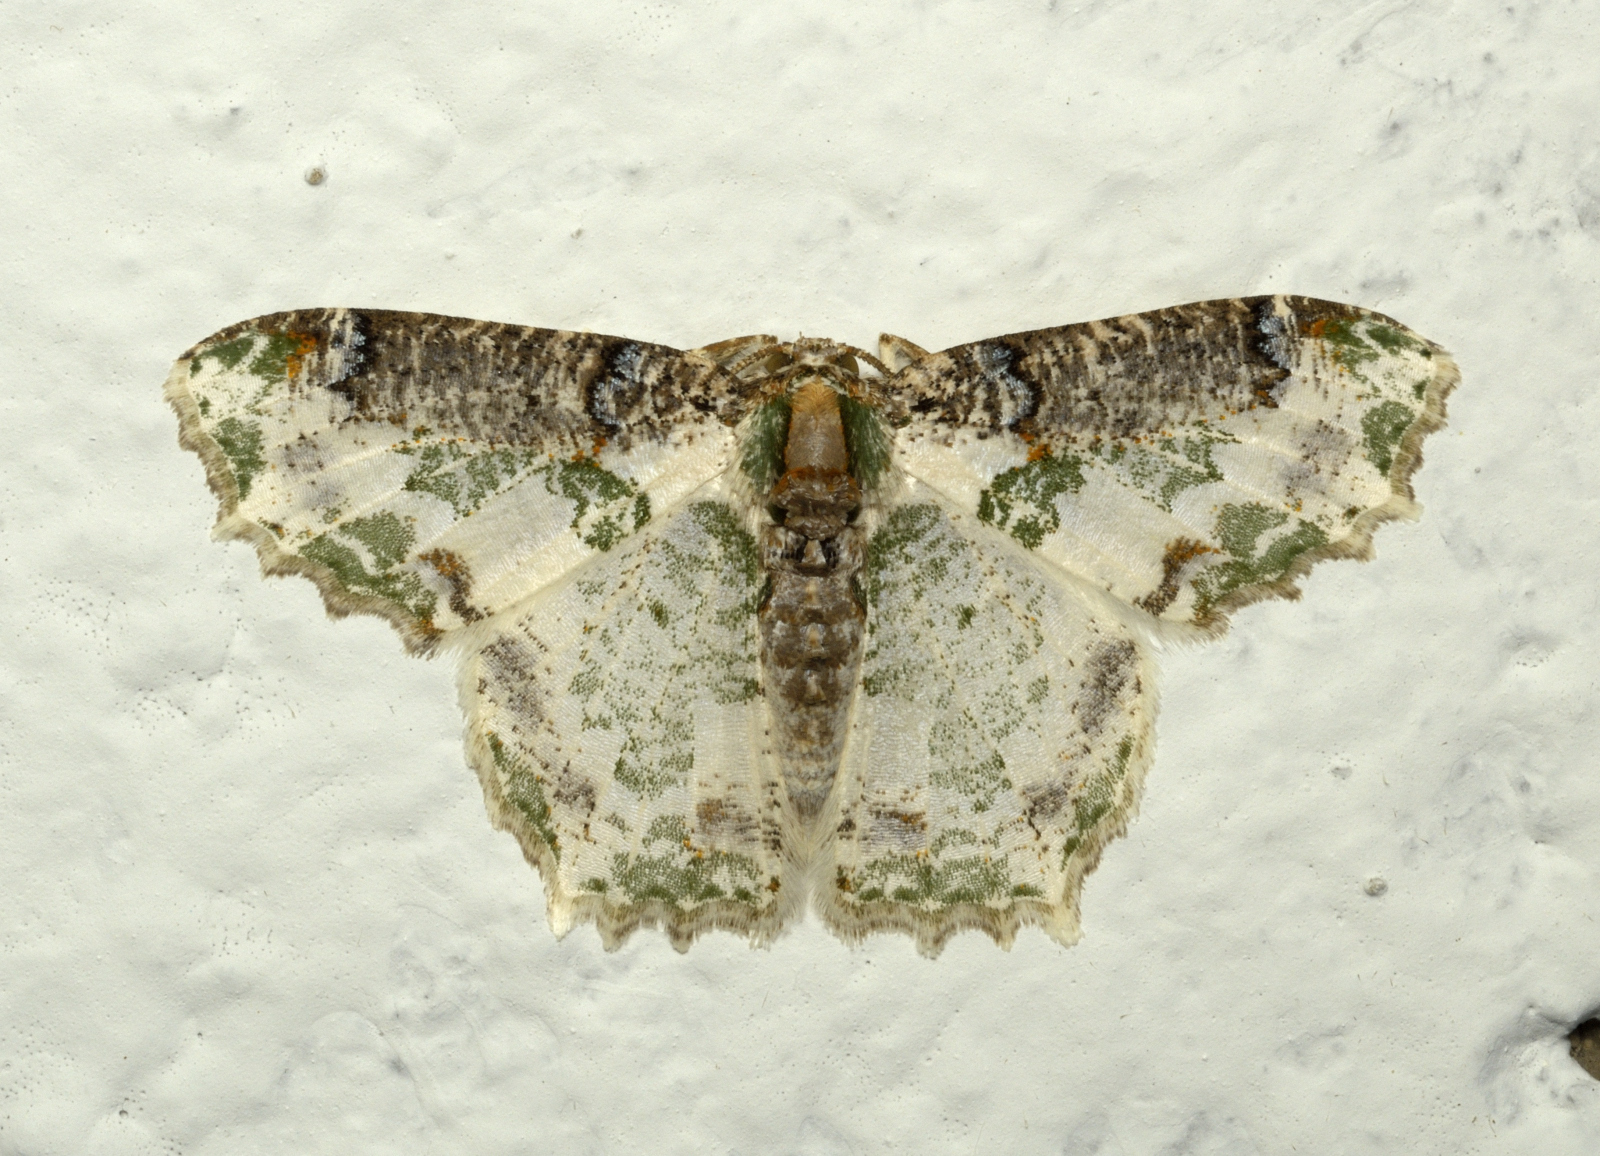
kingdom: Animalia
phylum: Arthropoda
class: Insecta
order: Lepidoptera
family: Geometridae
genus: Eucyclodes
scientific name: Eucyclodes picturata
